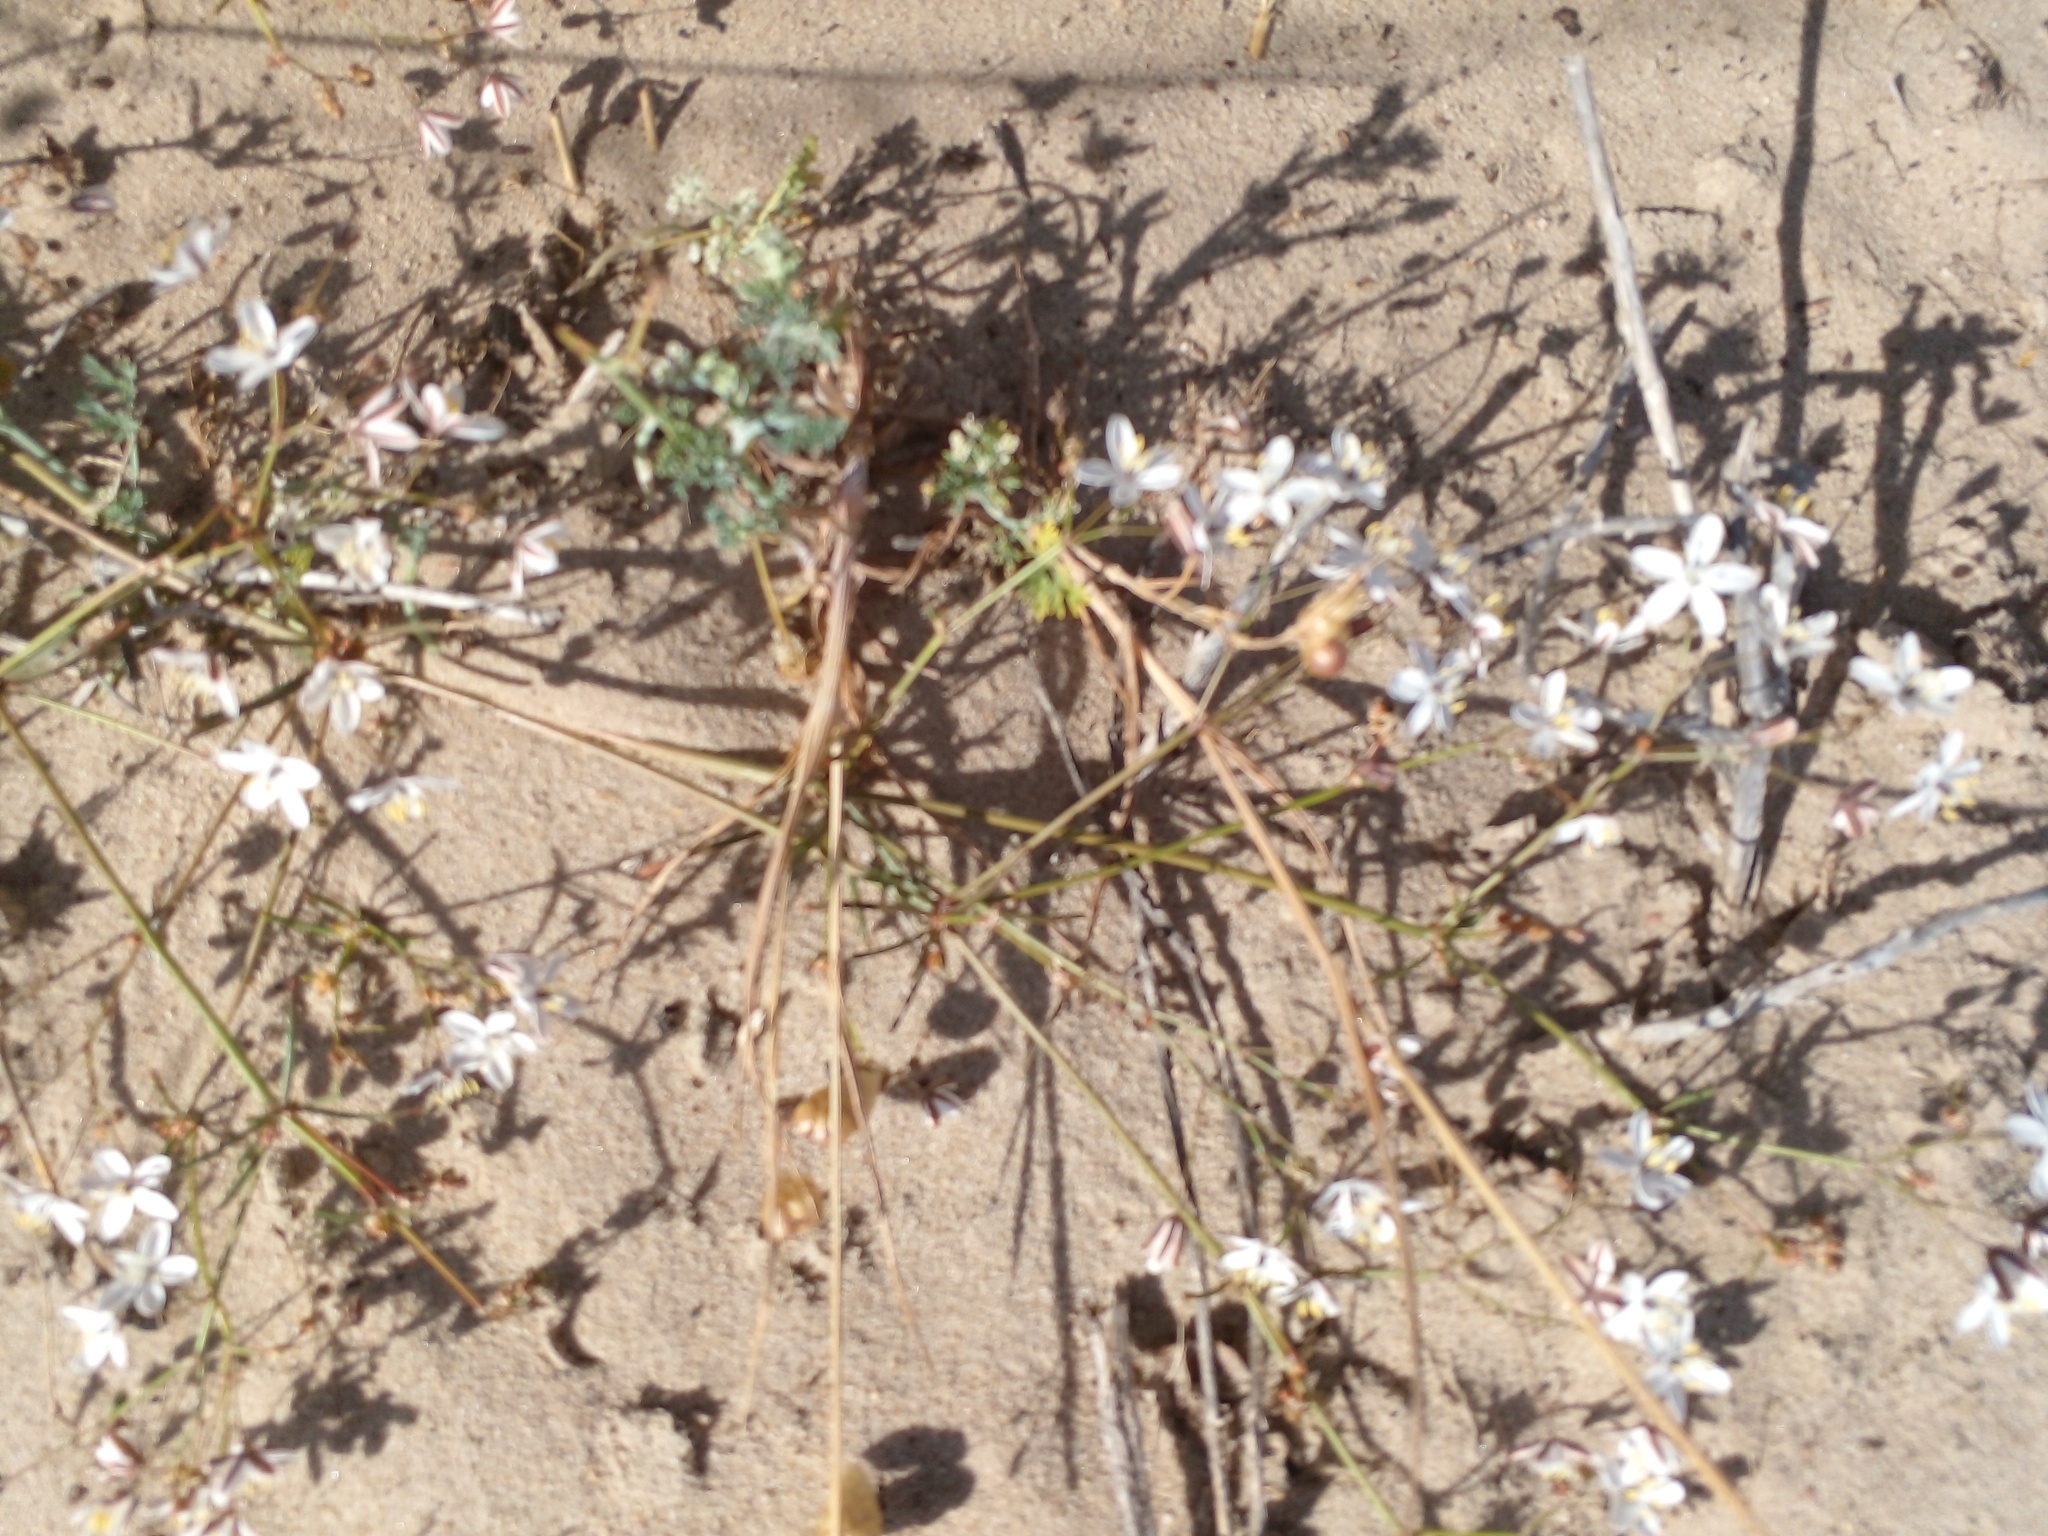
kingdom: Plantae
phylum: Tracheophyta
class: Magnoliopsida
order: Caryophyllales
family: Molluginaceae
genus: Pharnaceum
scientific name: Pharnaceum lineare
